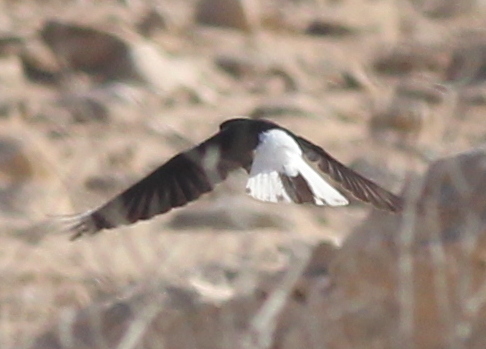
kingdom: Animalia
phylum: Chordata
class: Aves
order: Passeriformes
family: Muscicapidae
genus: Oenanthe
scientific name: Oenanthe leucopyga
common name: White-crowned wheatear
